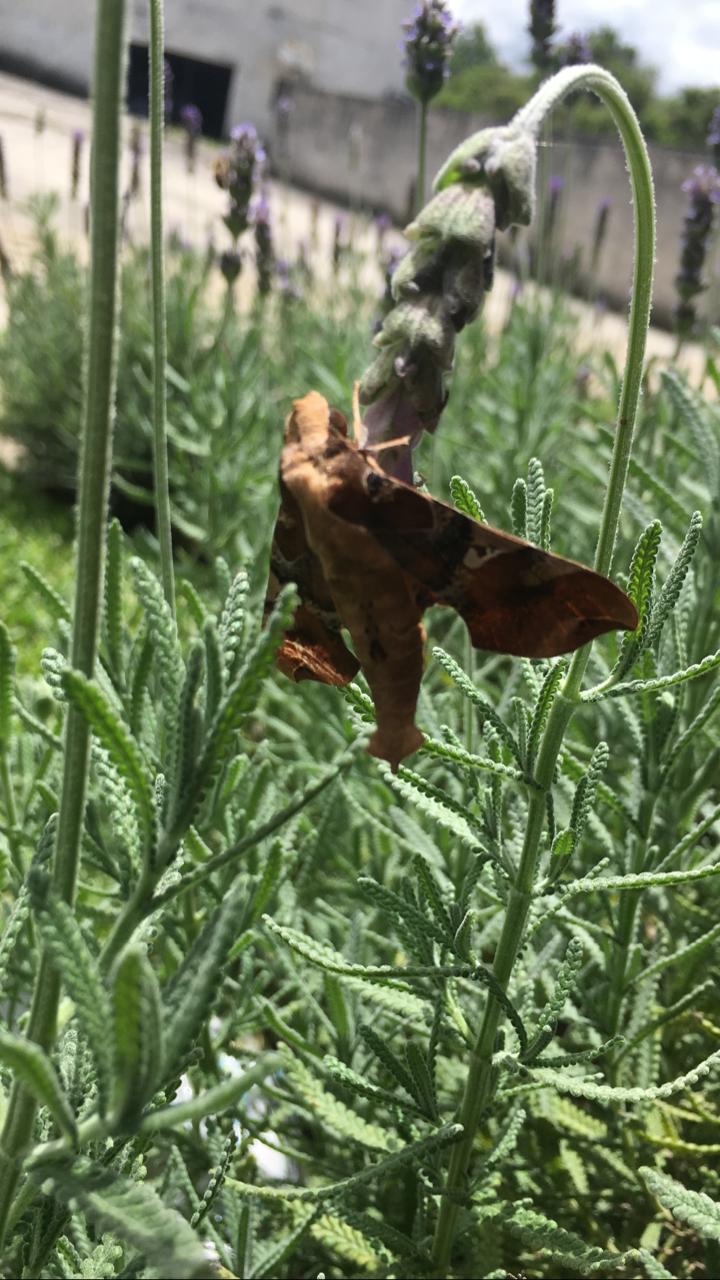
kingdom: Animalia
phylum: Arthropoda
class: Insecta
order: Lepidoptera
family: Sphingidae
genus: Callionima
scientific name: Callionima falcifera
